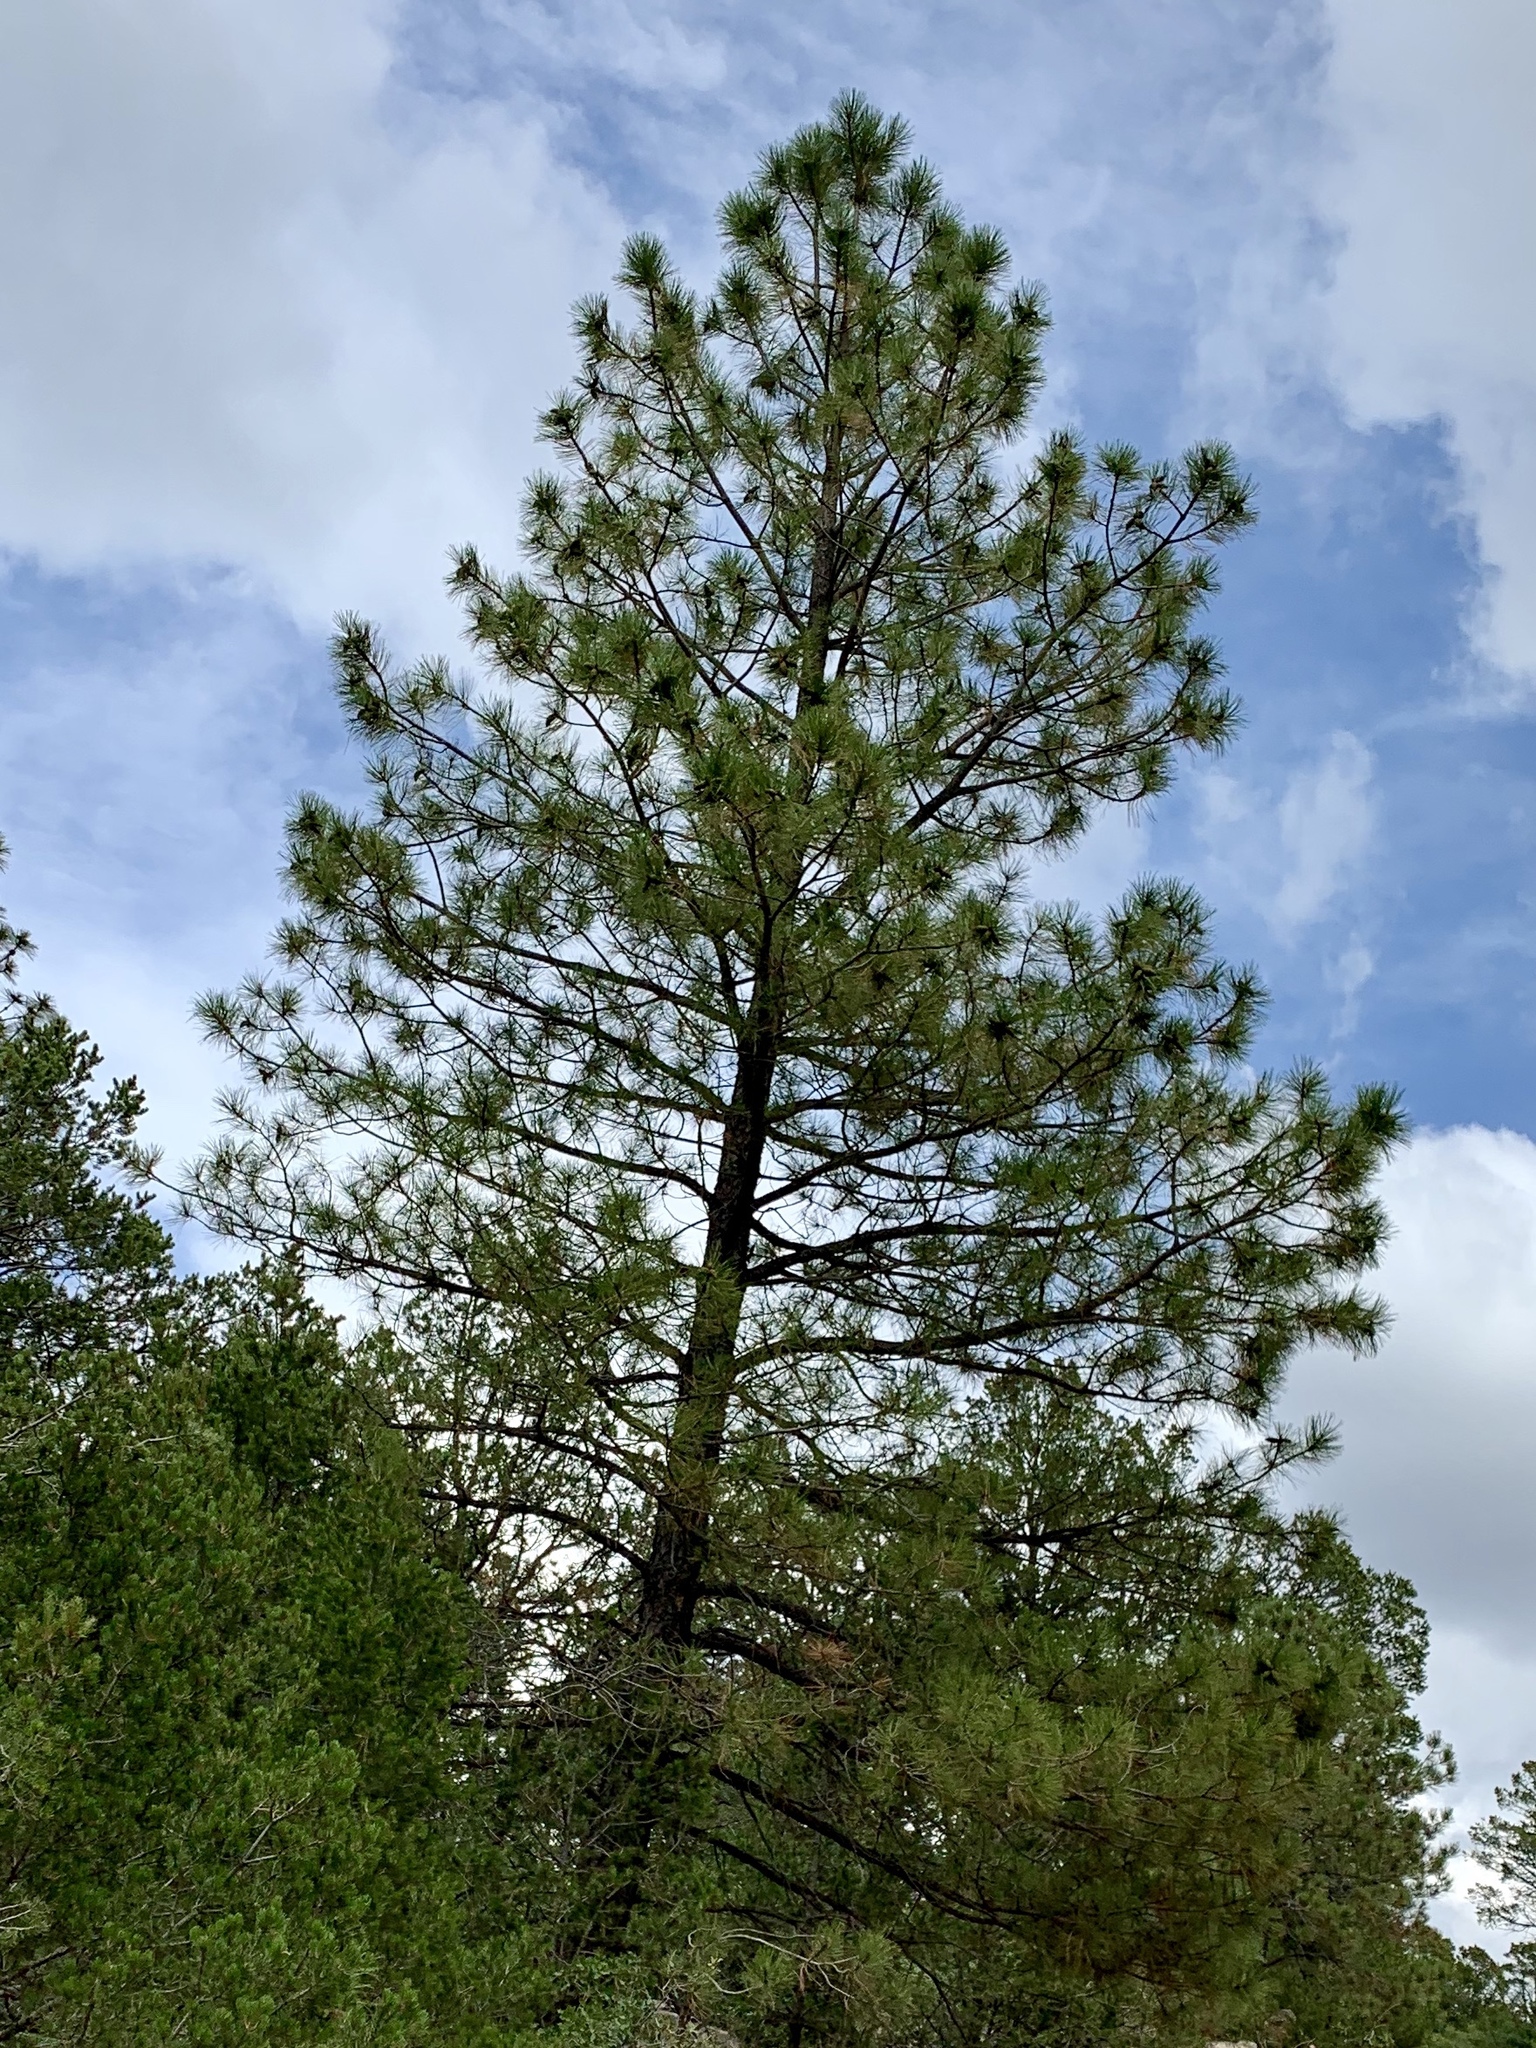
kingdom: Plantae
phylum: Tracheophyta
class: Pinopsida
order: Pinales
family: Pinaceae
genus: Pinus
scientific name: Pinus ponderosa
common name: Western yellow-pine
